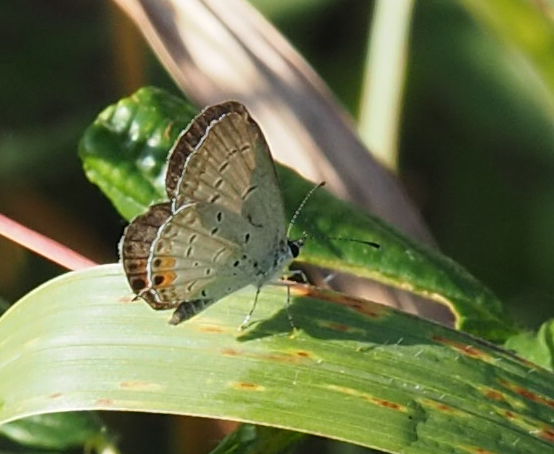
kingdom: Animalia
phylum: Arthropoda
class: Insecta
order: Lepidoptera
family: Lycaenidae
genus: Elkalyce
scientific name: Elkalyce comyntas
